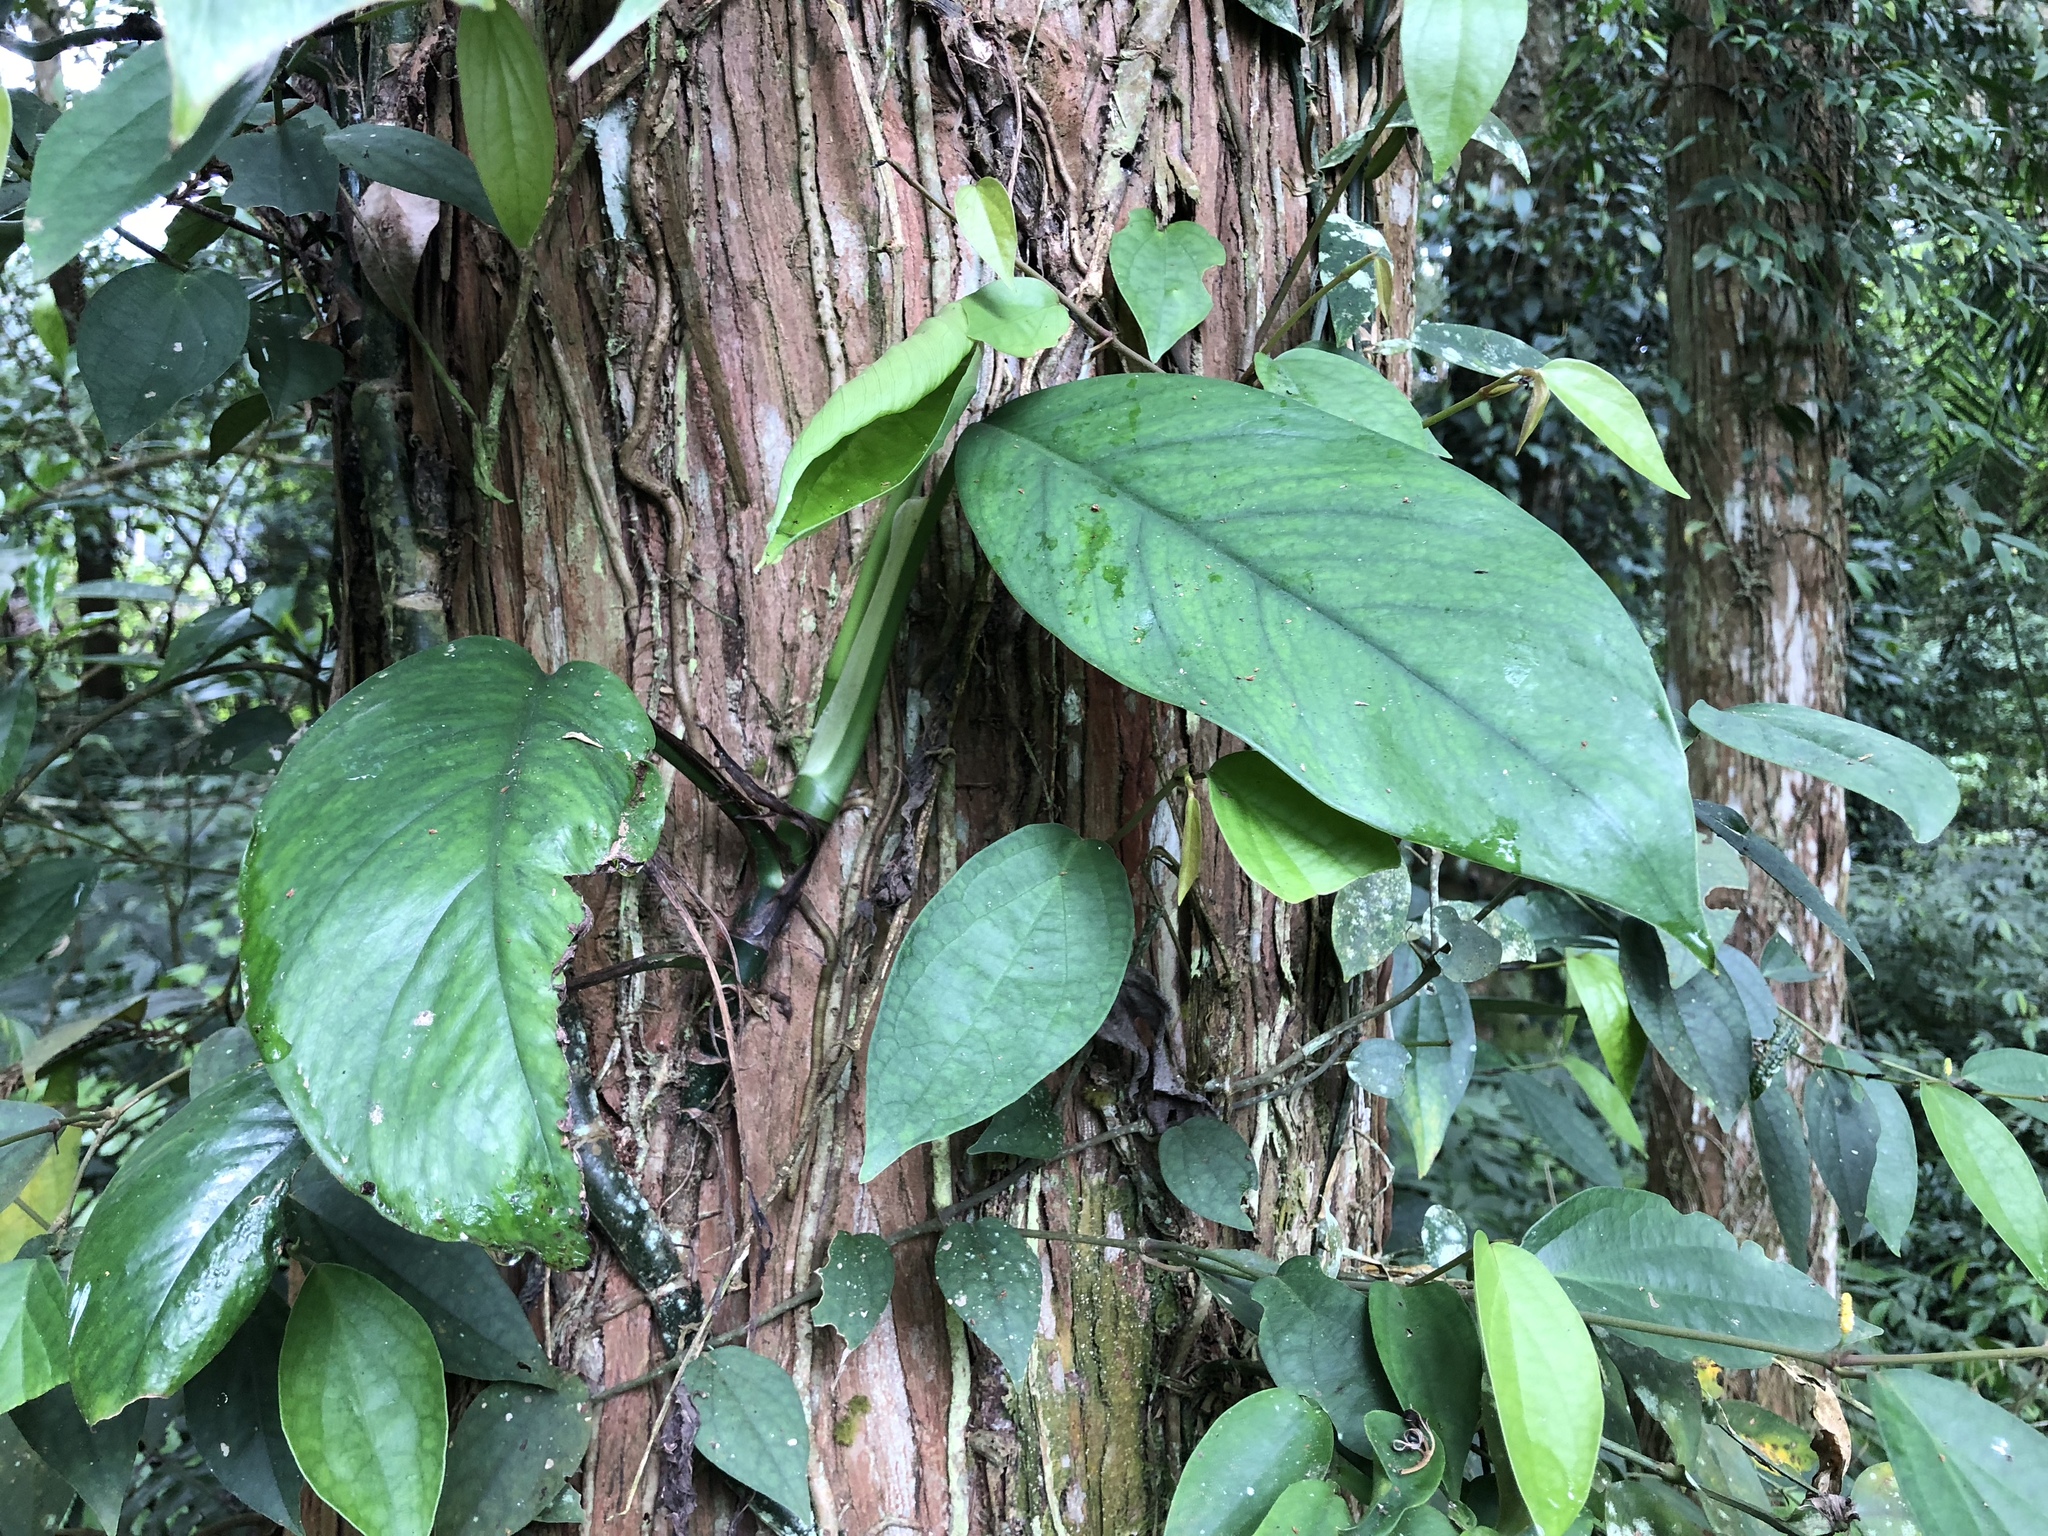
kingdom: Plantae
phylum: Tracheophyta
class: Liliopsida
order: Alismatales
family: Araceae
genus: Epipremnum
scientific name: Epipremnum pinnatum
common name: Centipede tongavine
